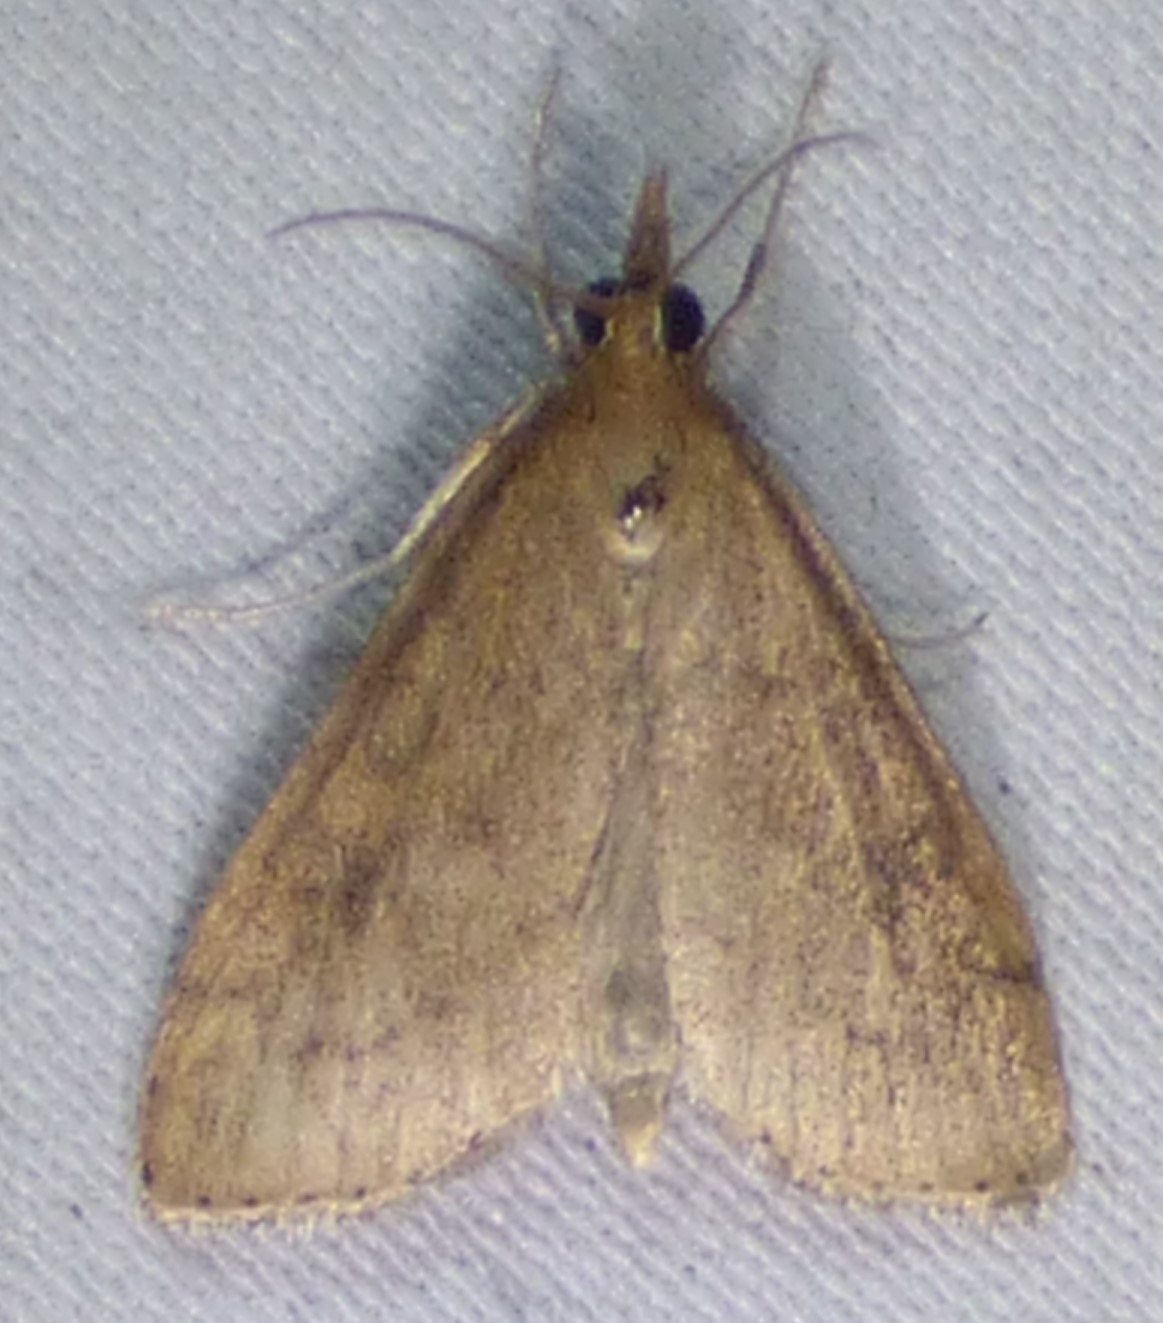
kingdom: Animalia
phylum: Arthropoda
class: Insecta
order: Lepidoptera
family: Crambidae
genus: Udea
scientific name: Udea rubigalis
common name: Celery leaftier moth
